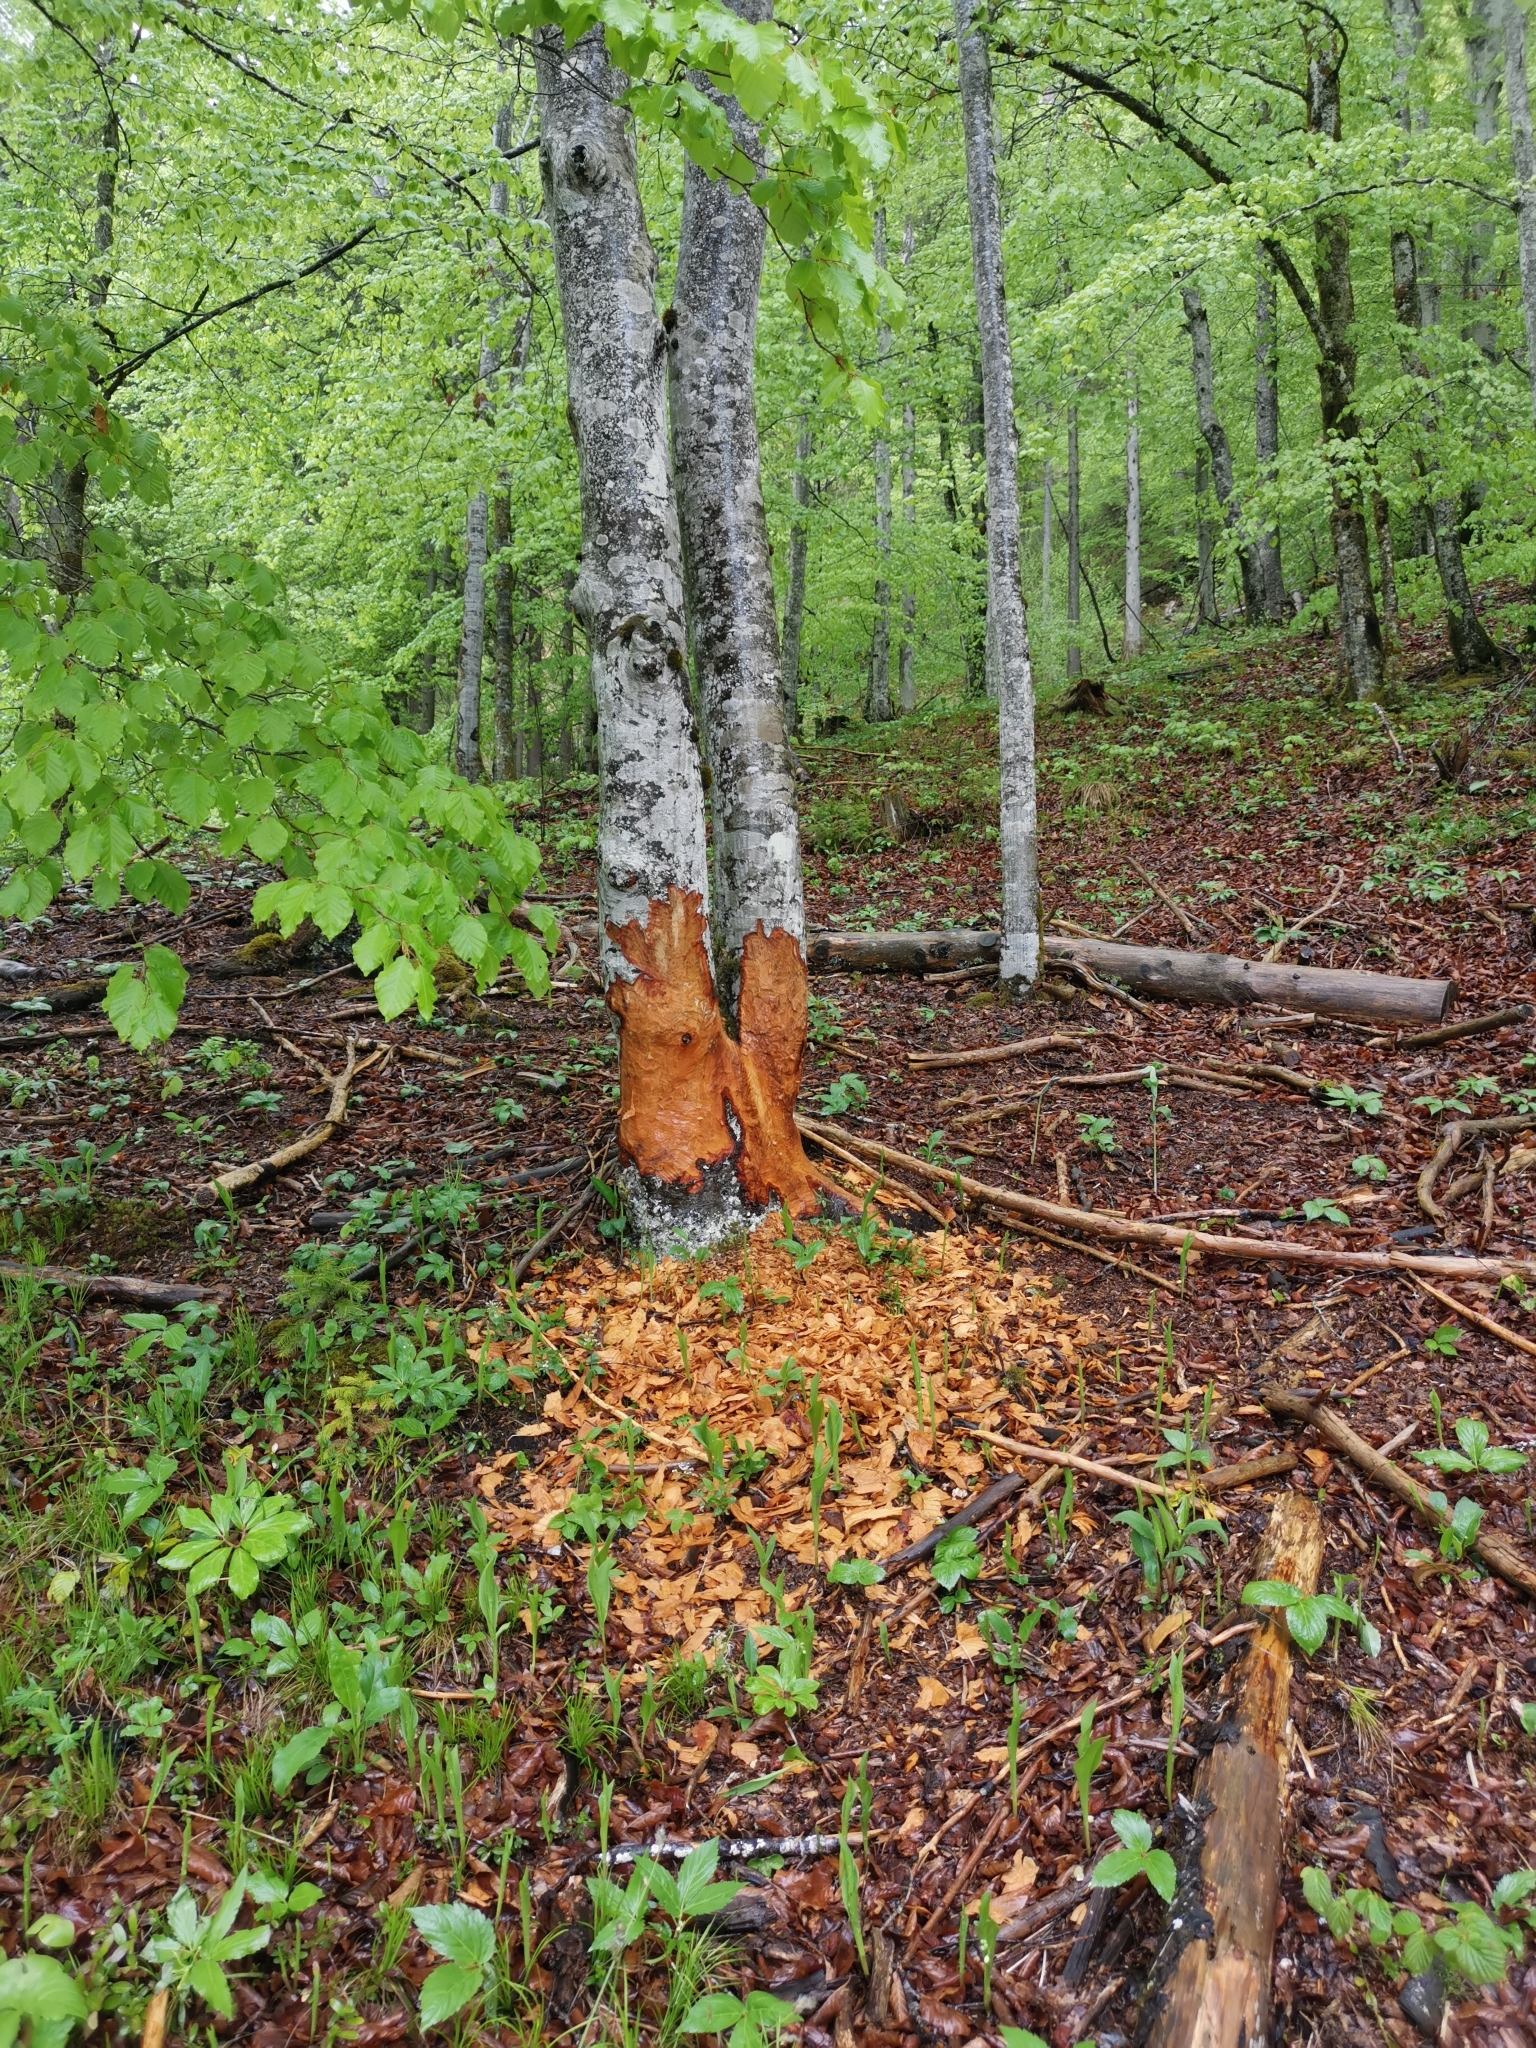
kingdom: Animalia
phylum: Chordata
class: Mammalia
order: Rodentia
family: Castoridae
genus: Castor
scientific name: Castor fiber
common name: Eurasian beaver
